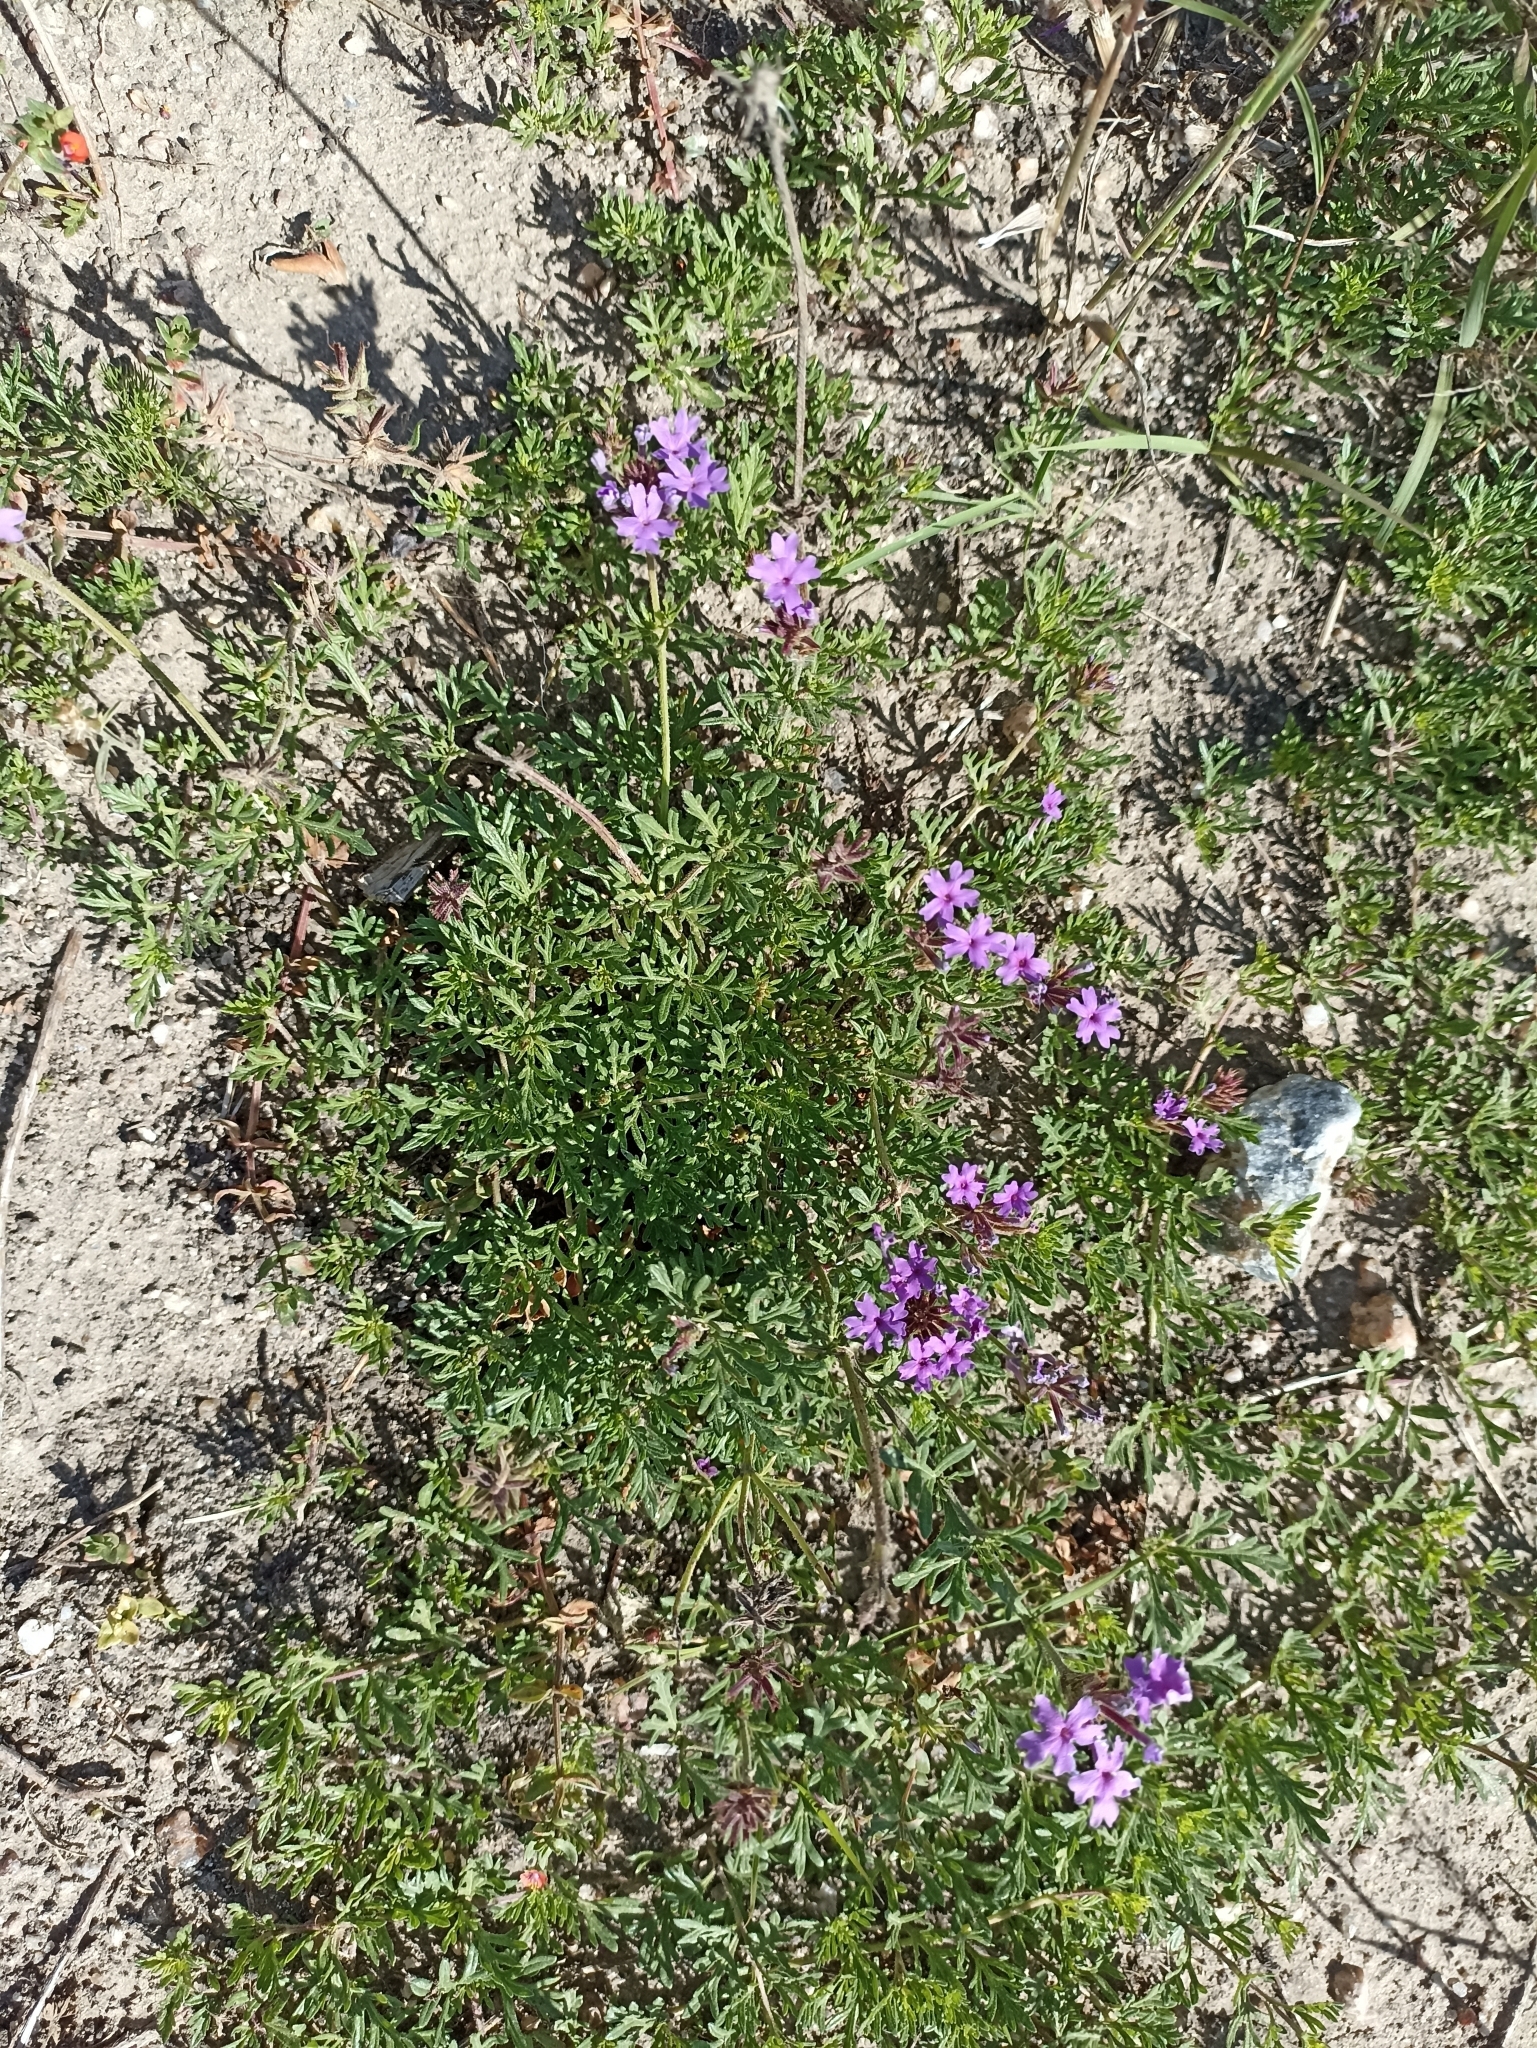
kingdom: Plantae
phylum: Tracheophyta
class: Magnoliopsida
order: Lamiales
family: Verbenaceae
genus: Verbena
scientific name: Verbena selloi
